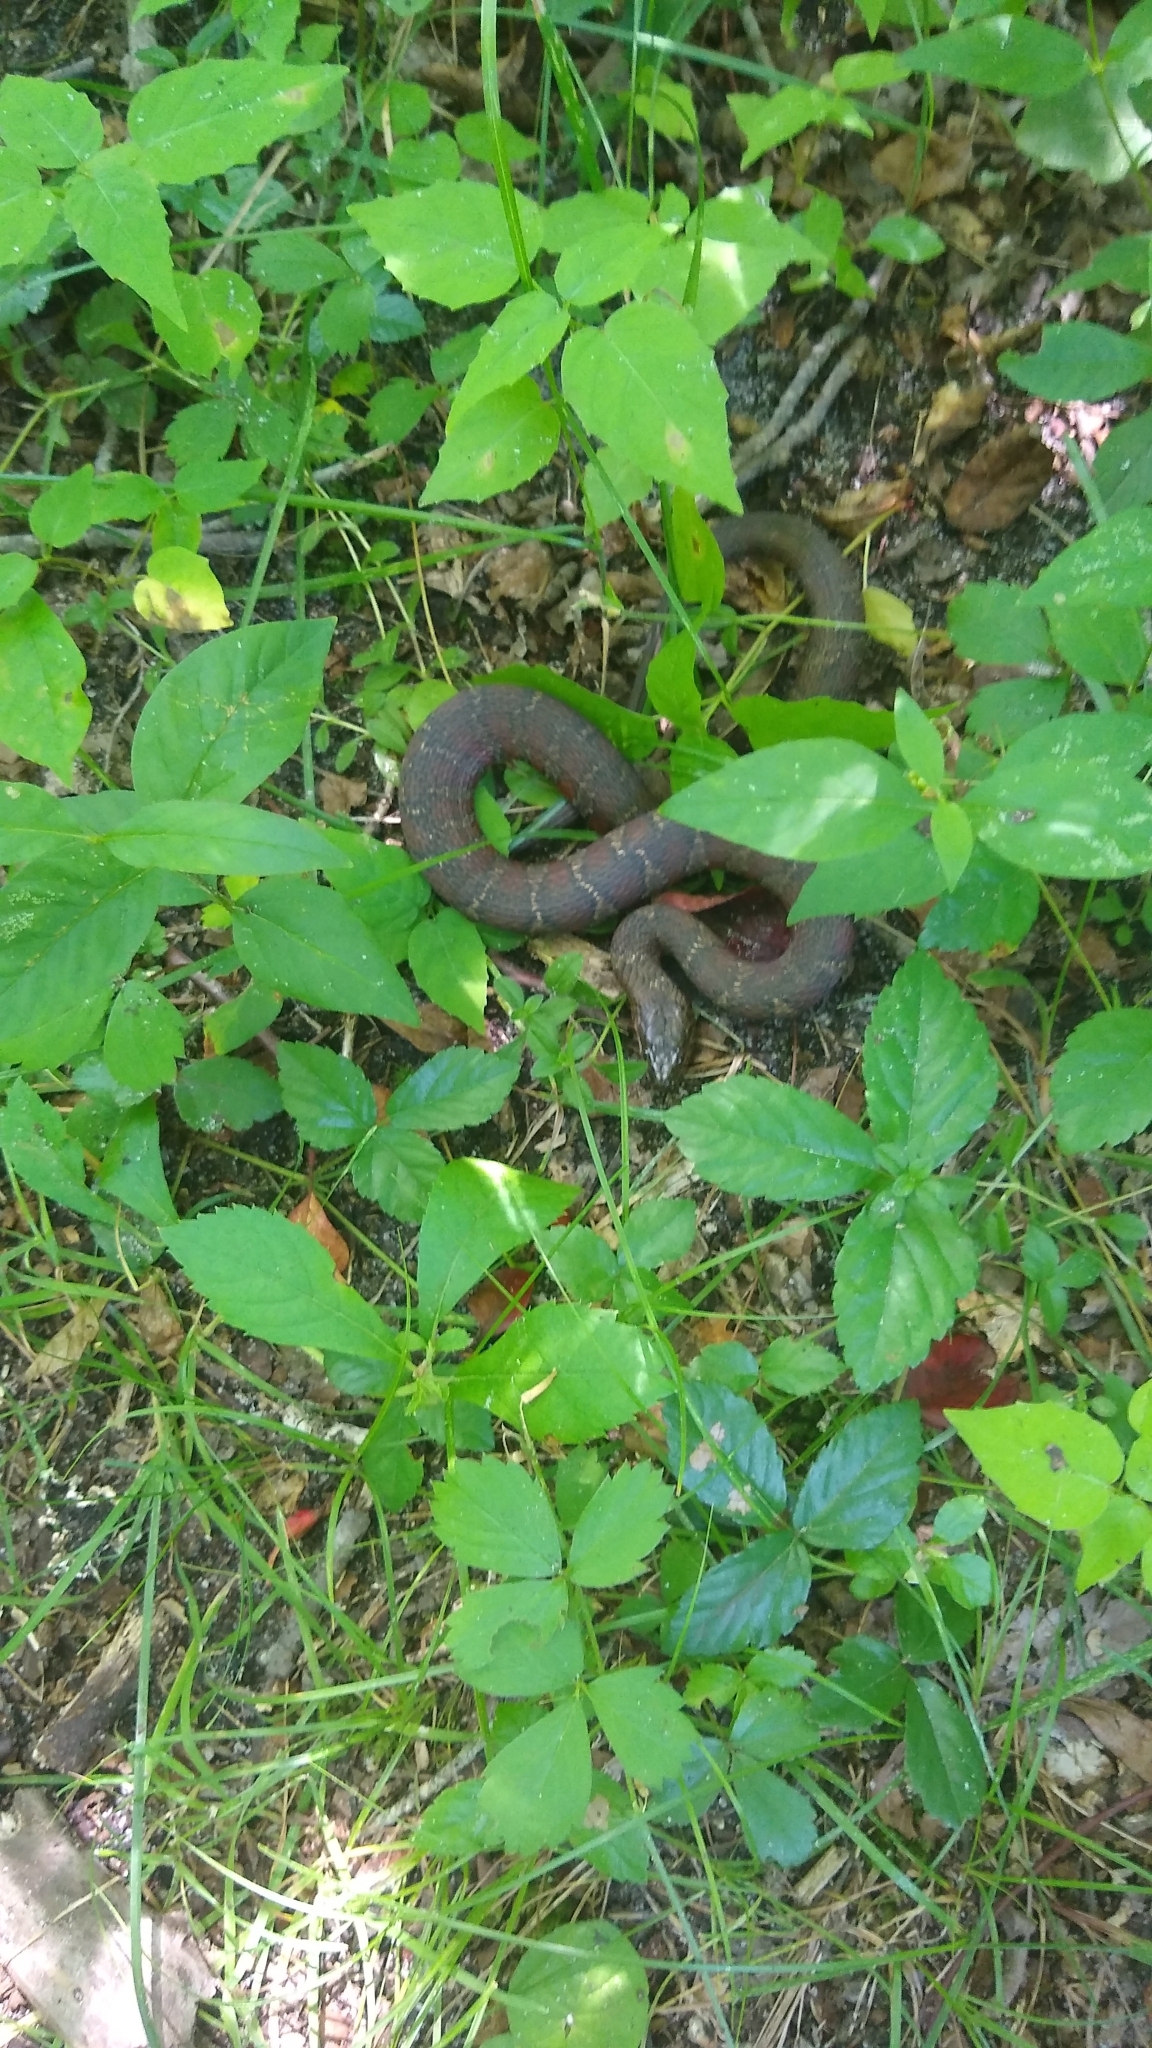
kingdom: Animalia
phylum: Chordata
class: Squamata
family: Colubridae
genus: Nerodia
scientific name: Nerodia sipedon
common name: Northern water snake
